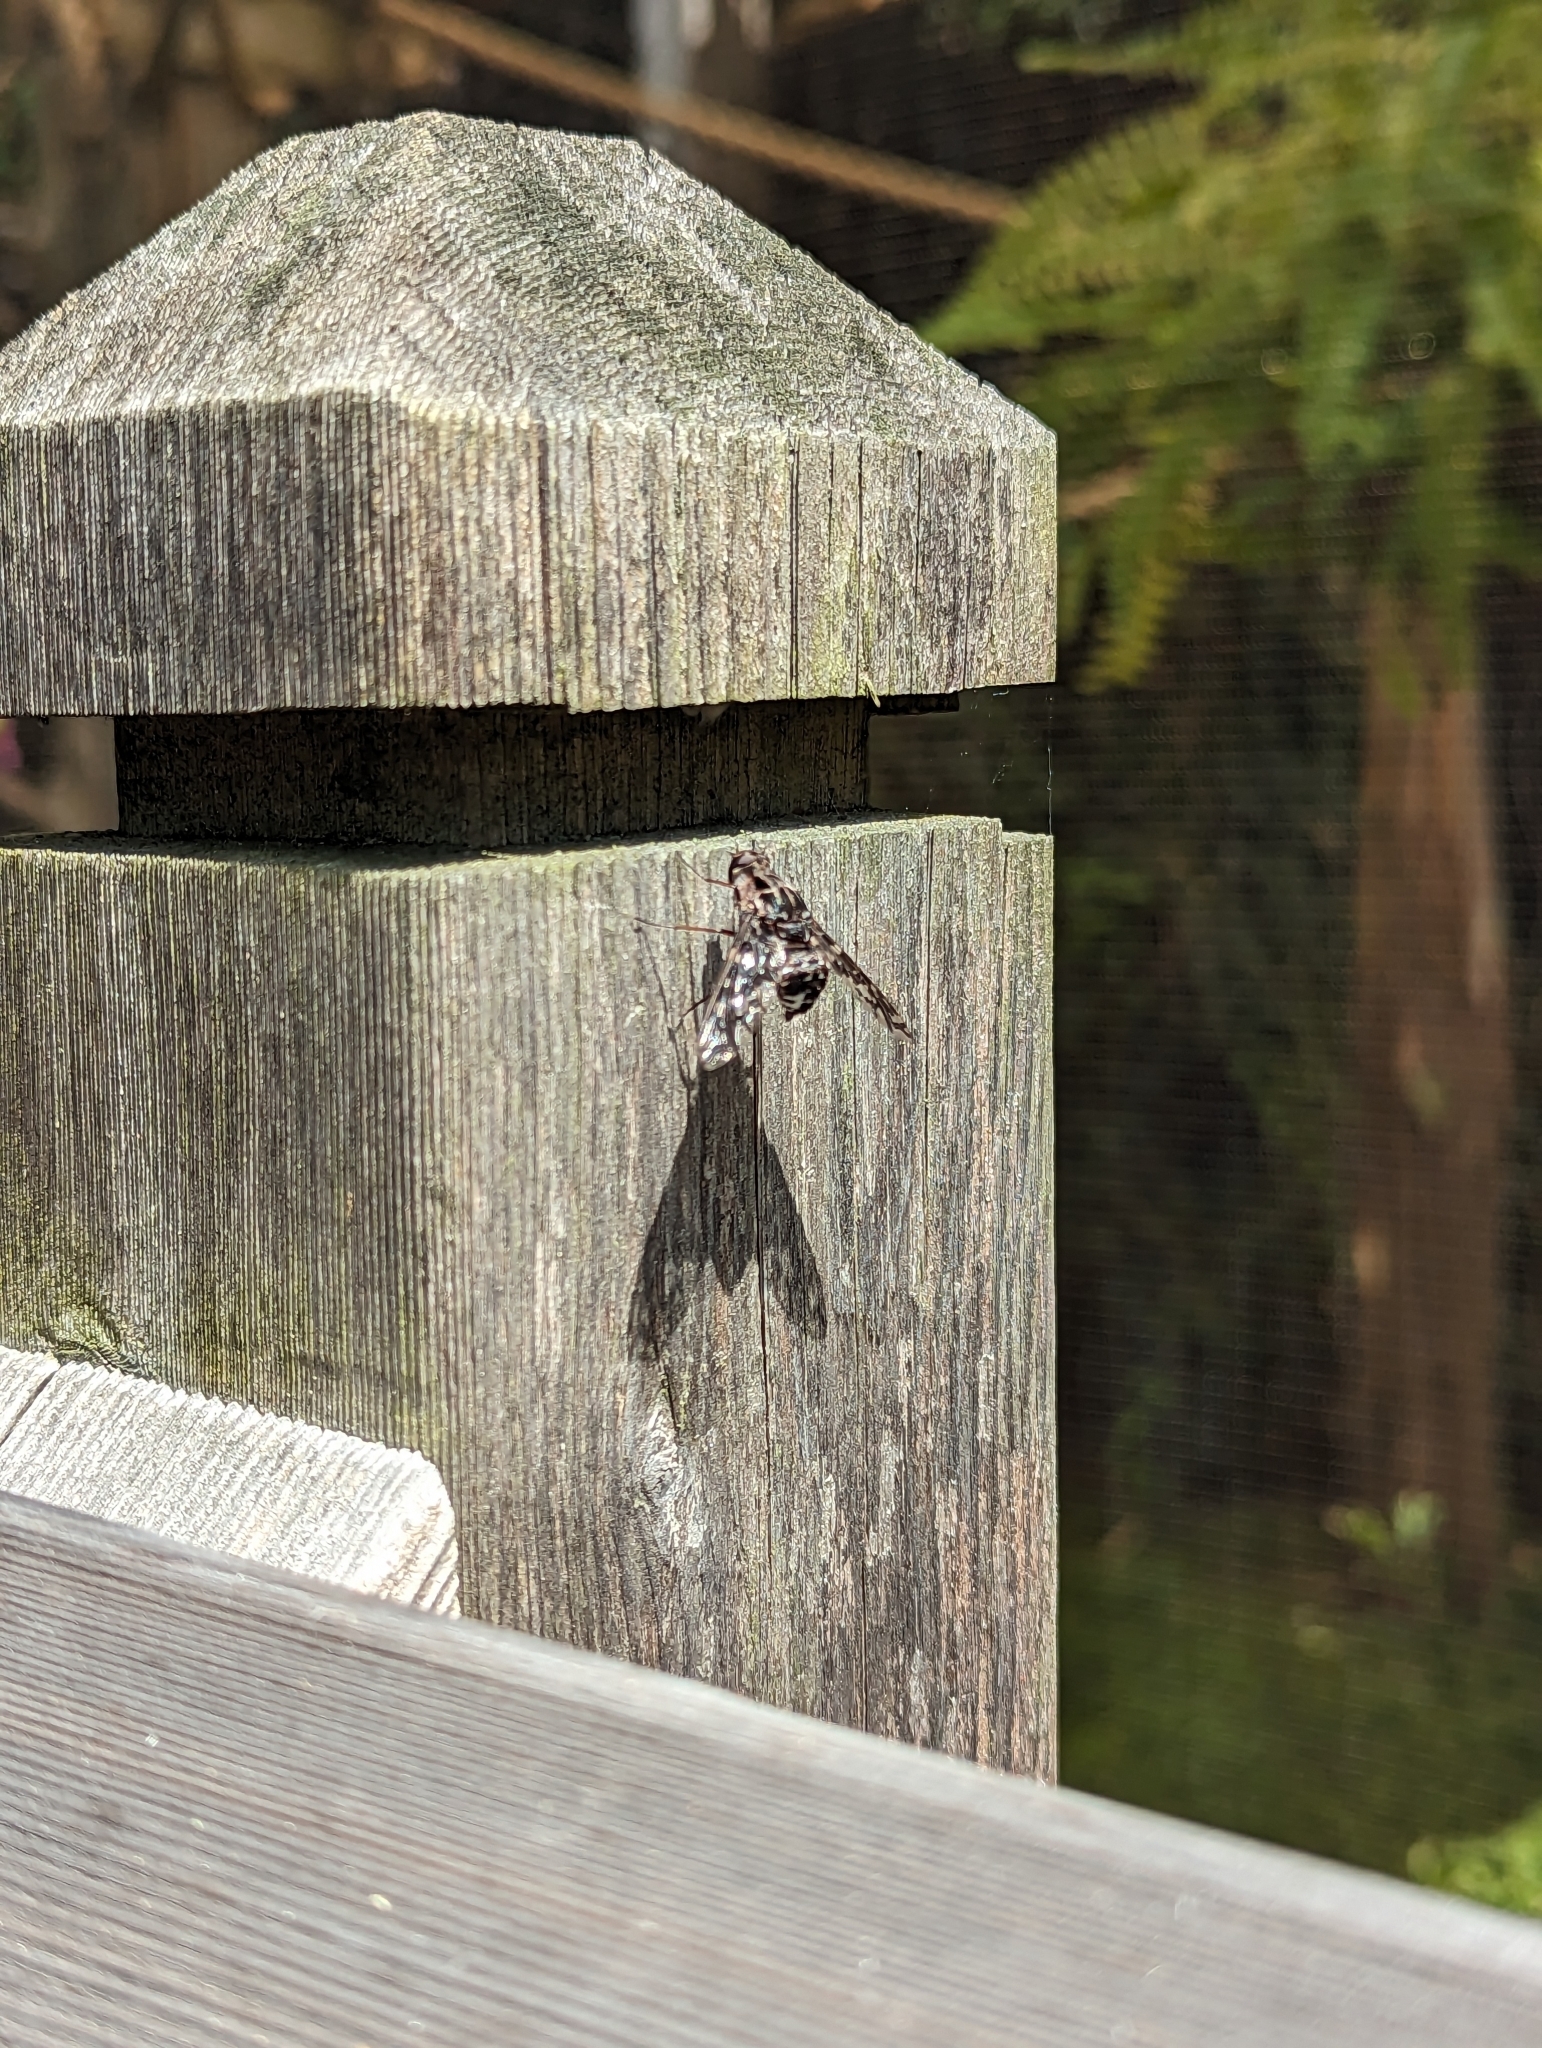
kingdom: Animalia
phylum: Arthropoda
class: Insecta
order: Diptera
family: Bombyliidae
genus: Xenox
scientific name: Xenox tigrinus
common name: Tiger bee fly
